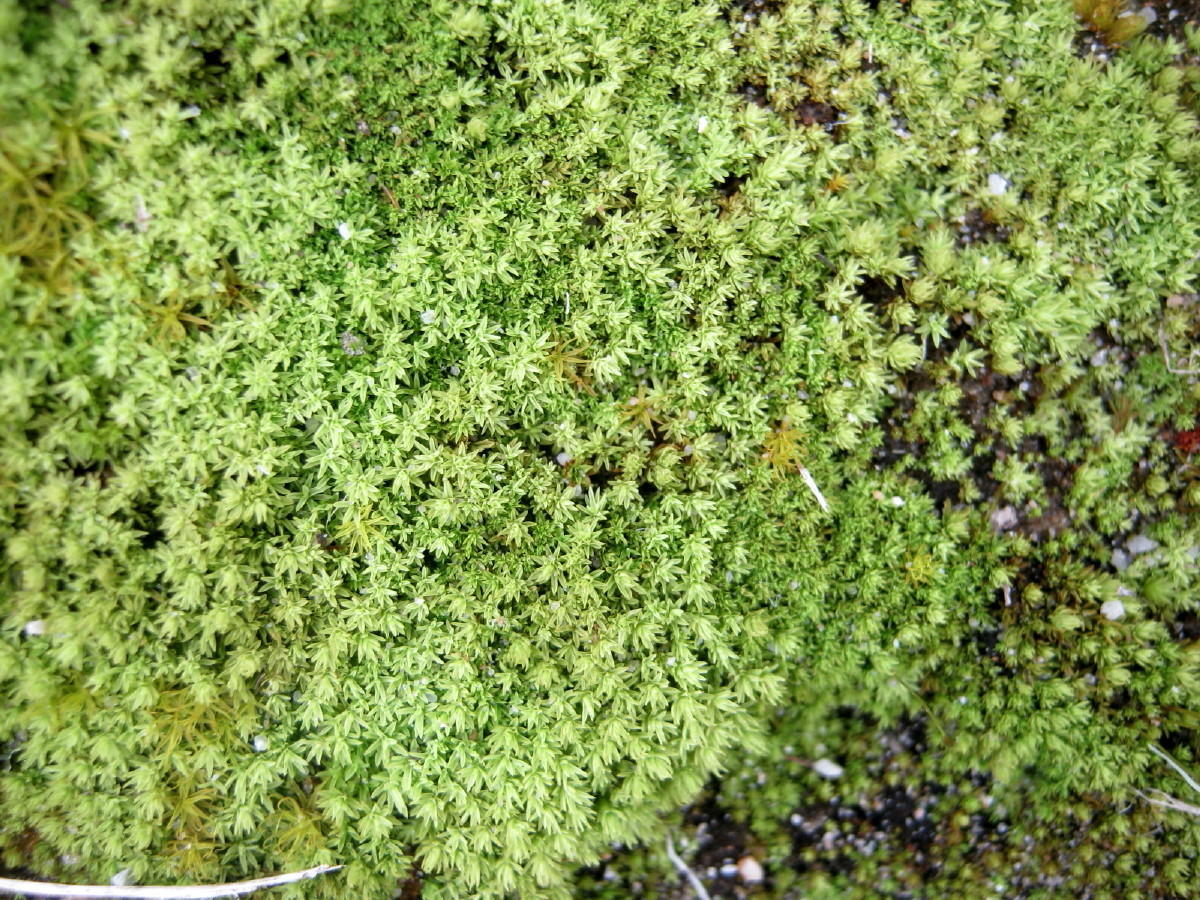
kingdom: Plantae
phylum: Bryophyta
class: Bryopsida
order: Pottiales
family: Pottiaceae
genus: Pseudocrossidium
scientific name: Pseudocrossidium crinitum
